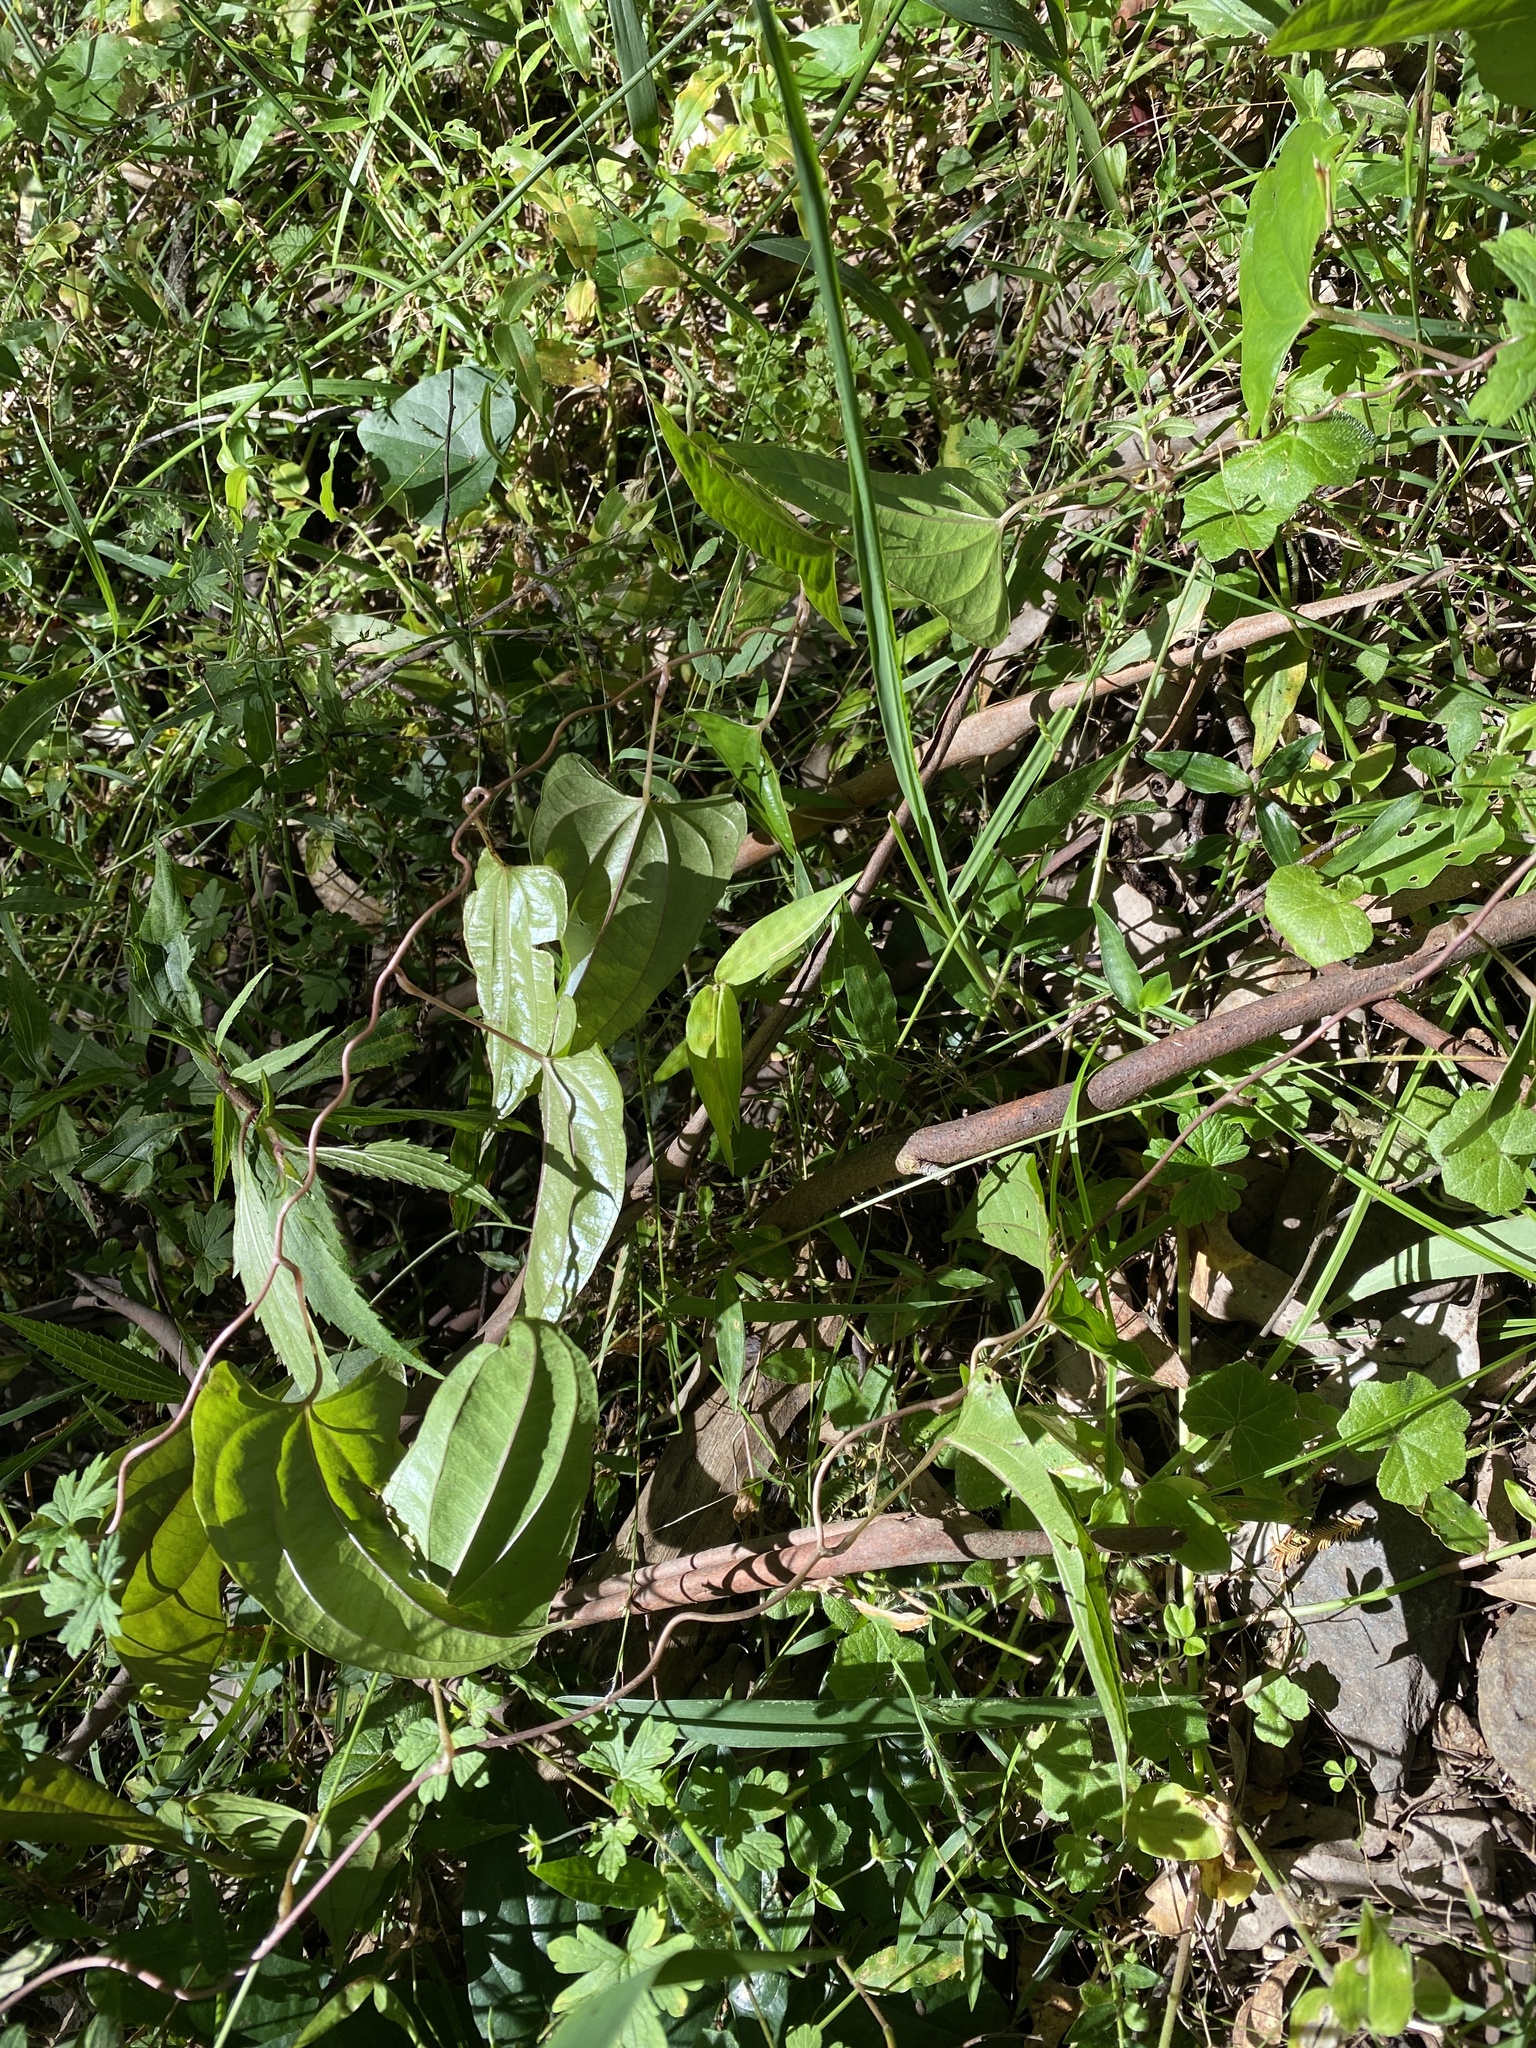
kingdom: Plantae
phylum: Tracheophyta
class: Liliopsida
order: Dioscoreales
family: Dioscoreaceae
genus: Dioscorea
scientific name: Dioscorea transversa
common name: Long yam
